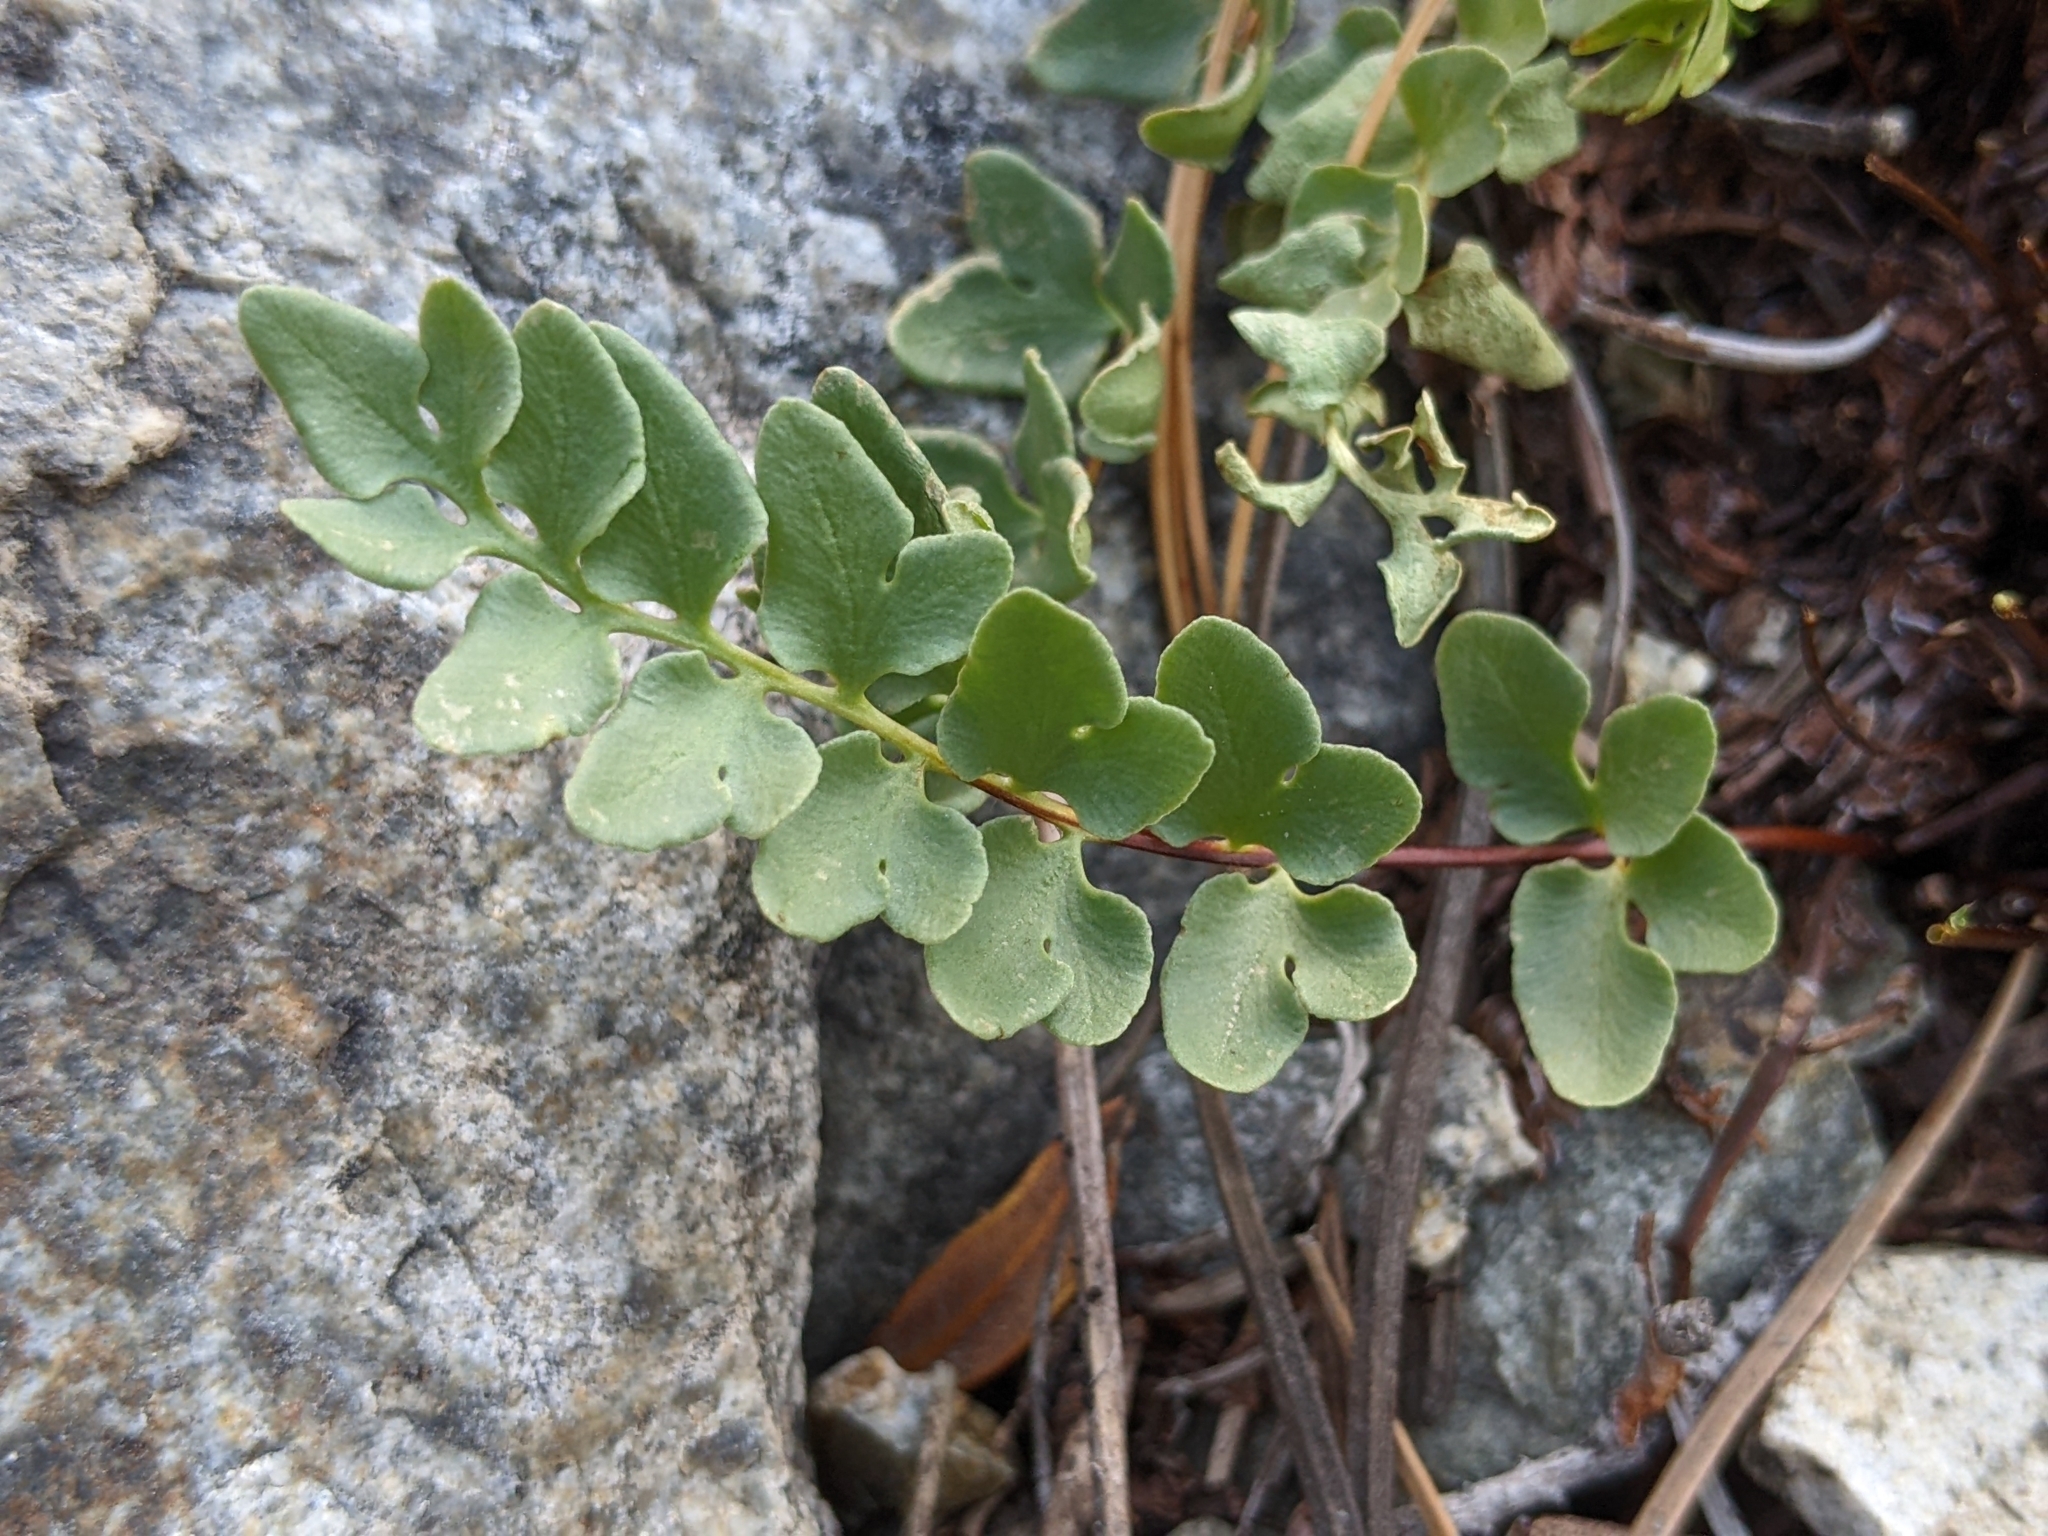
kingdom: Plantae
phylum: Tracheophyta
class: Polypodiopsida
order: Polypodiales
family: Pteridaceae
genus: Pellaea
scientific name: Pellaea breweri
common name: Brewer's cliffbrake
